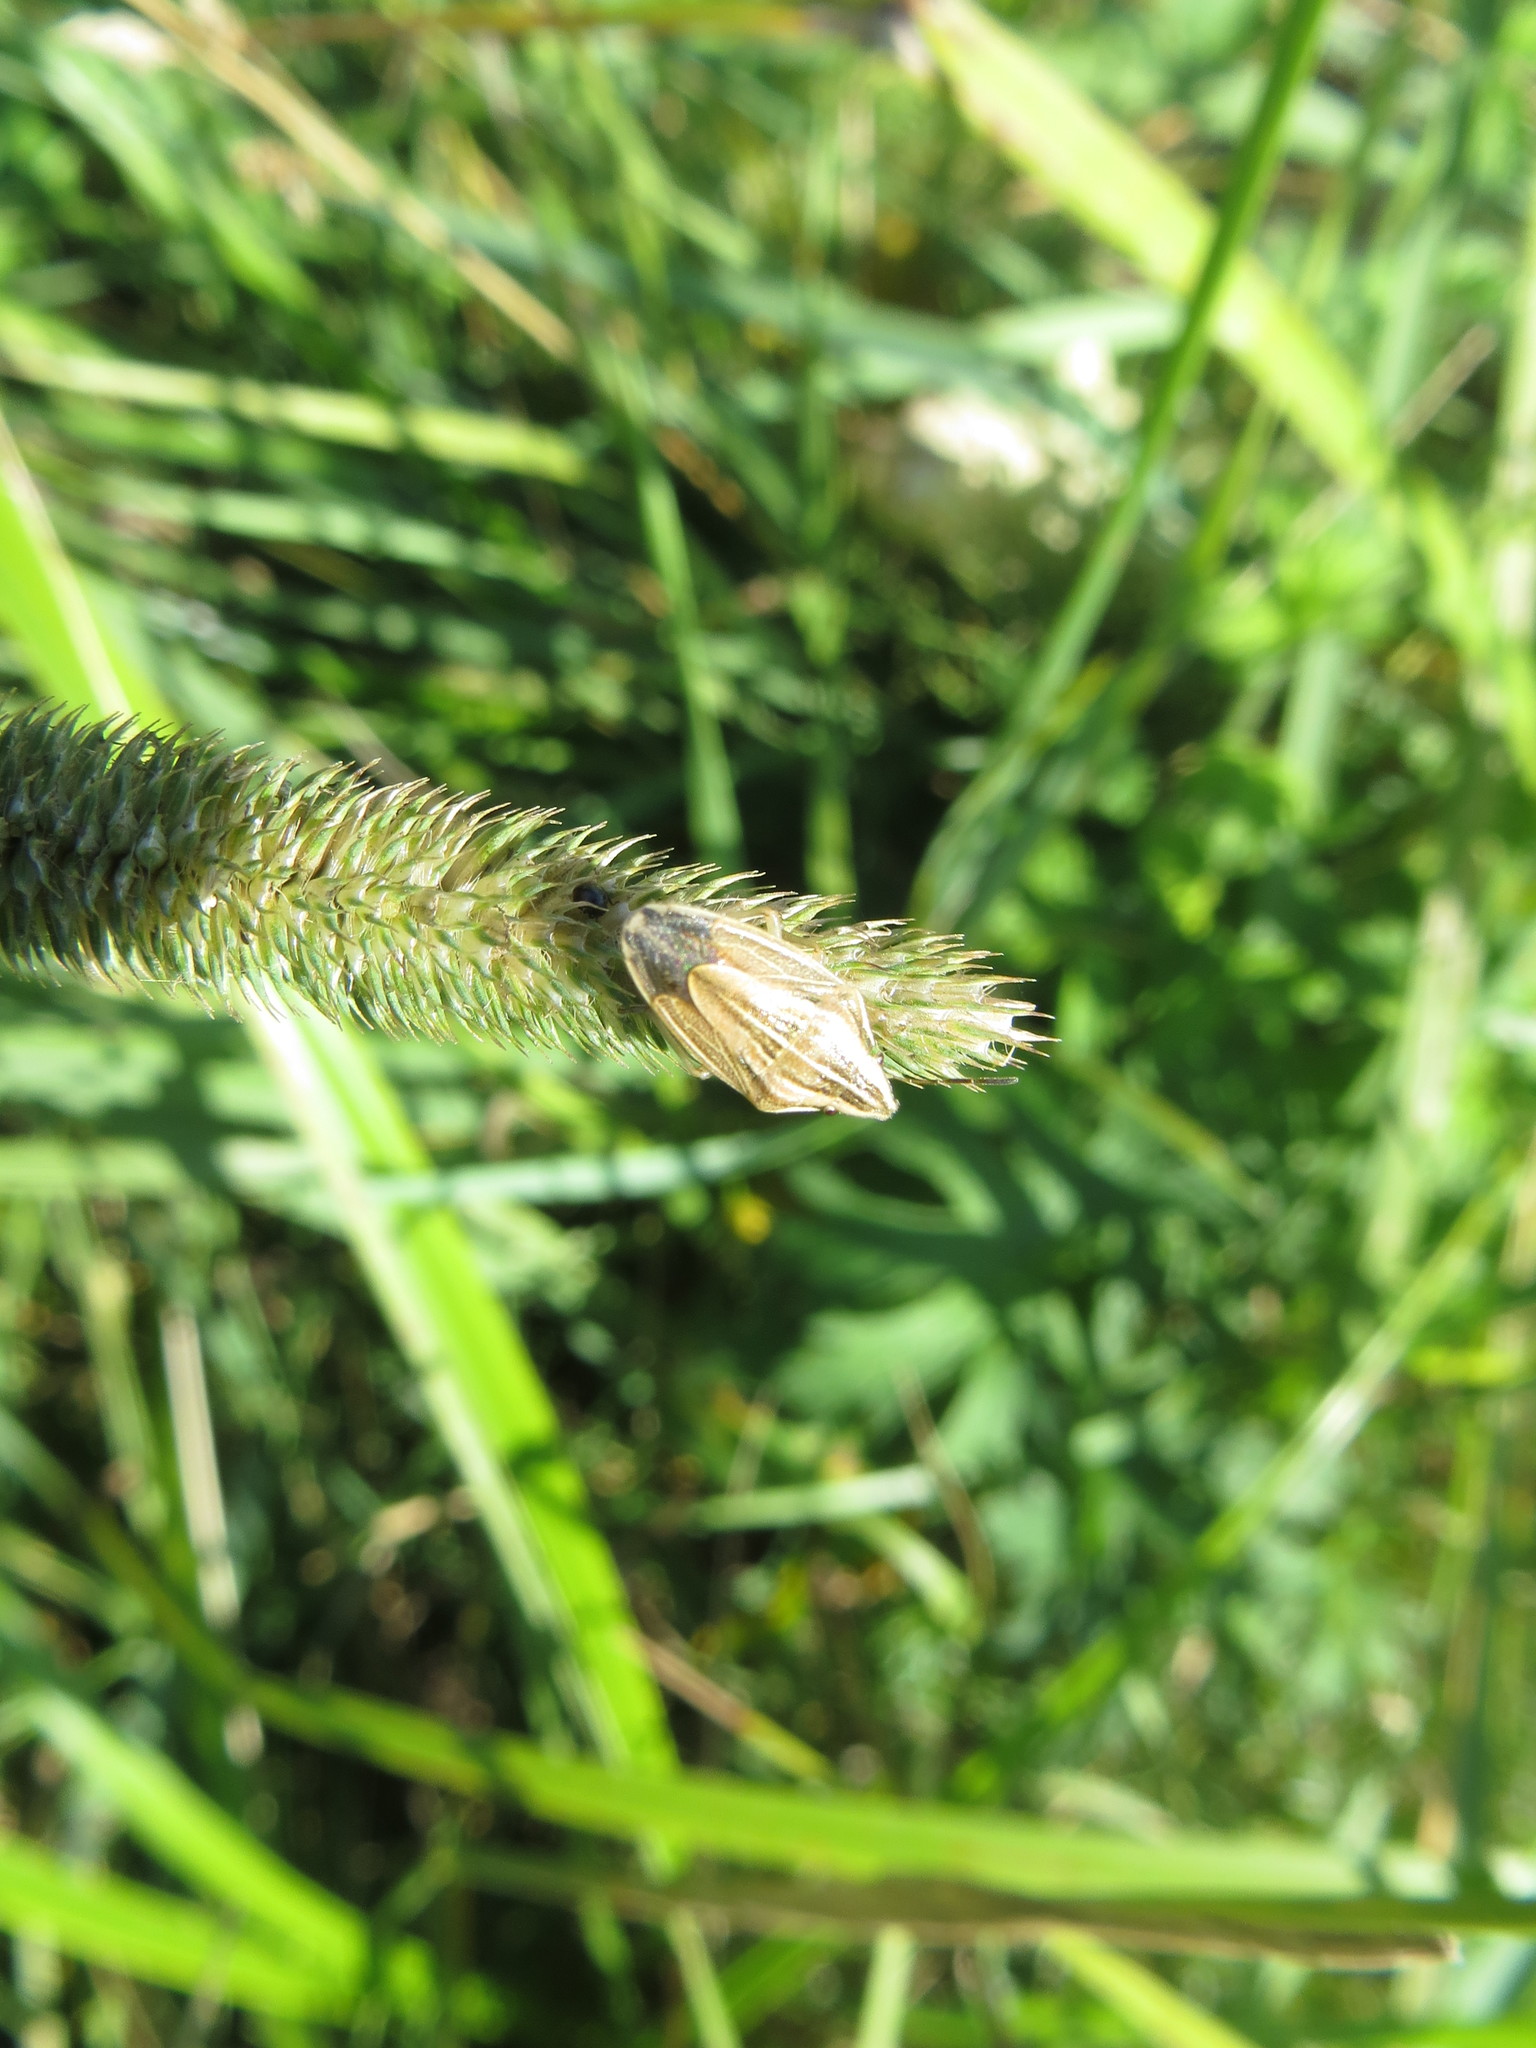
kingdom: Animalia
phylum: Arthropoda
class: Insecta
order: Hemiptera
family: Pentatomidae
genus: Aelia
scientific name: Aelia acuminata
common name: Bishop's mitre
